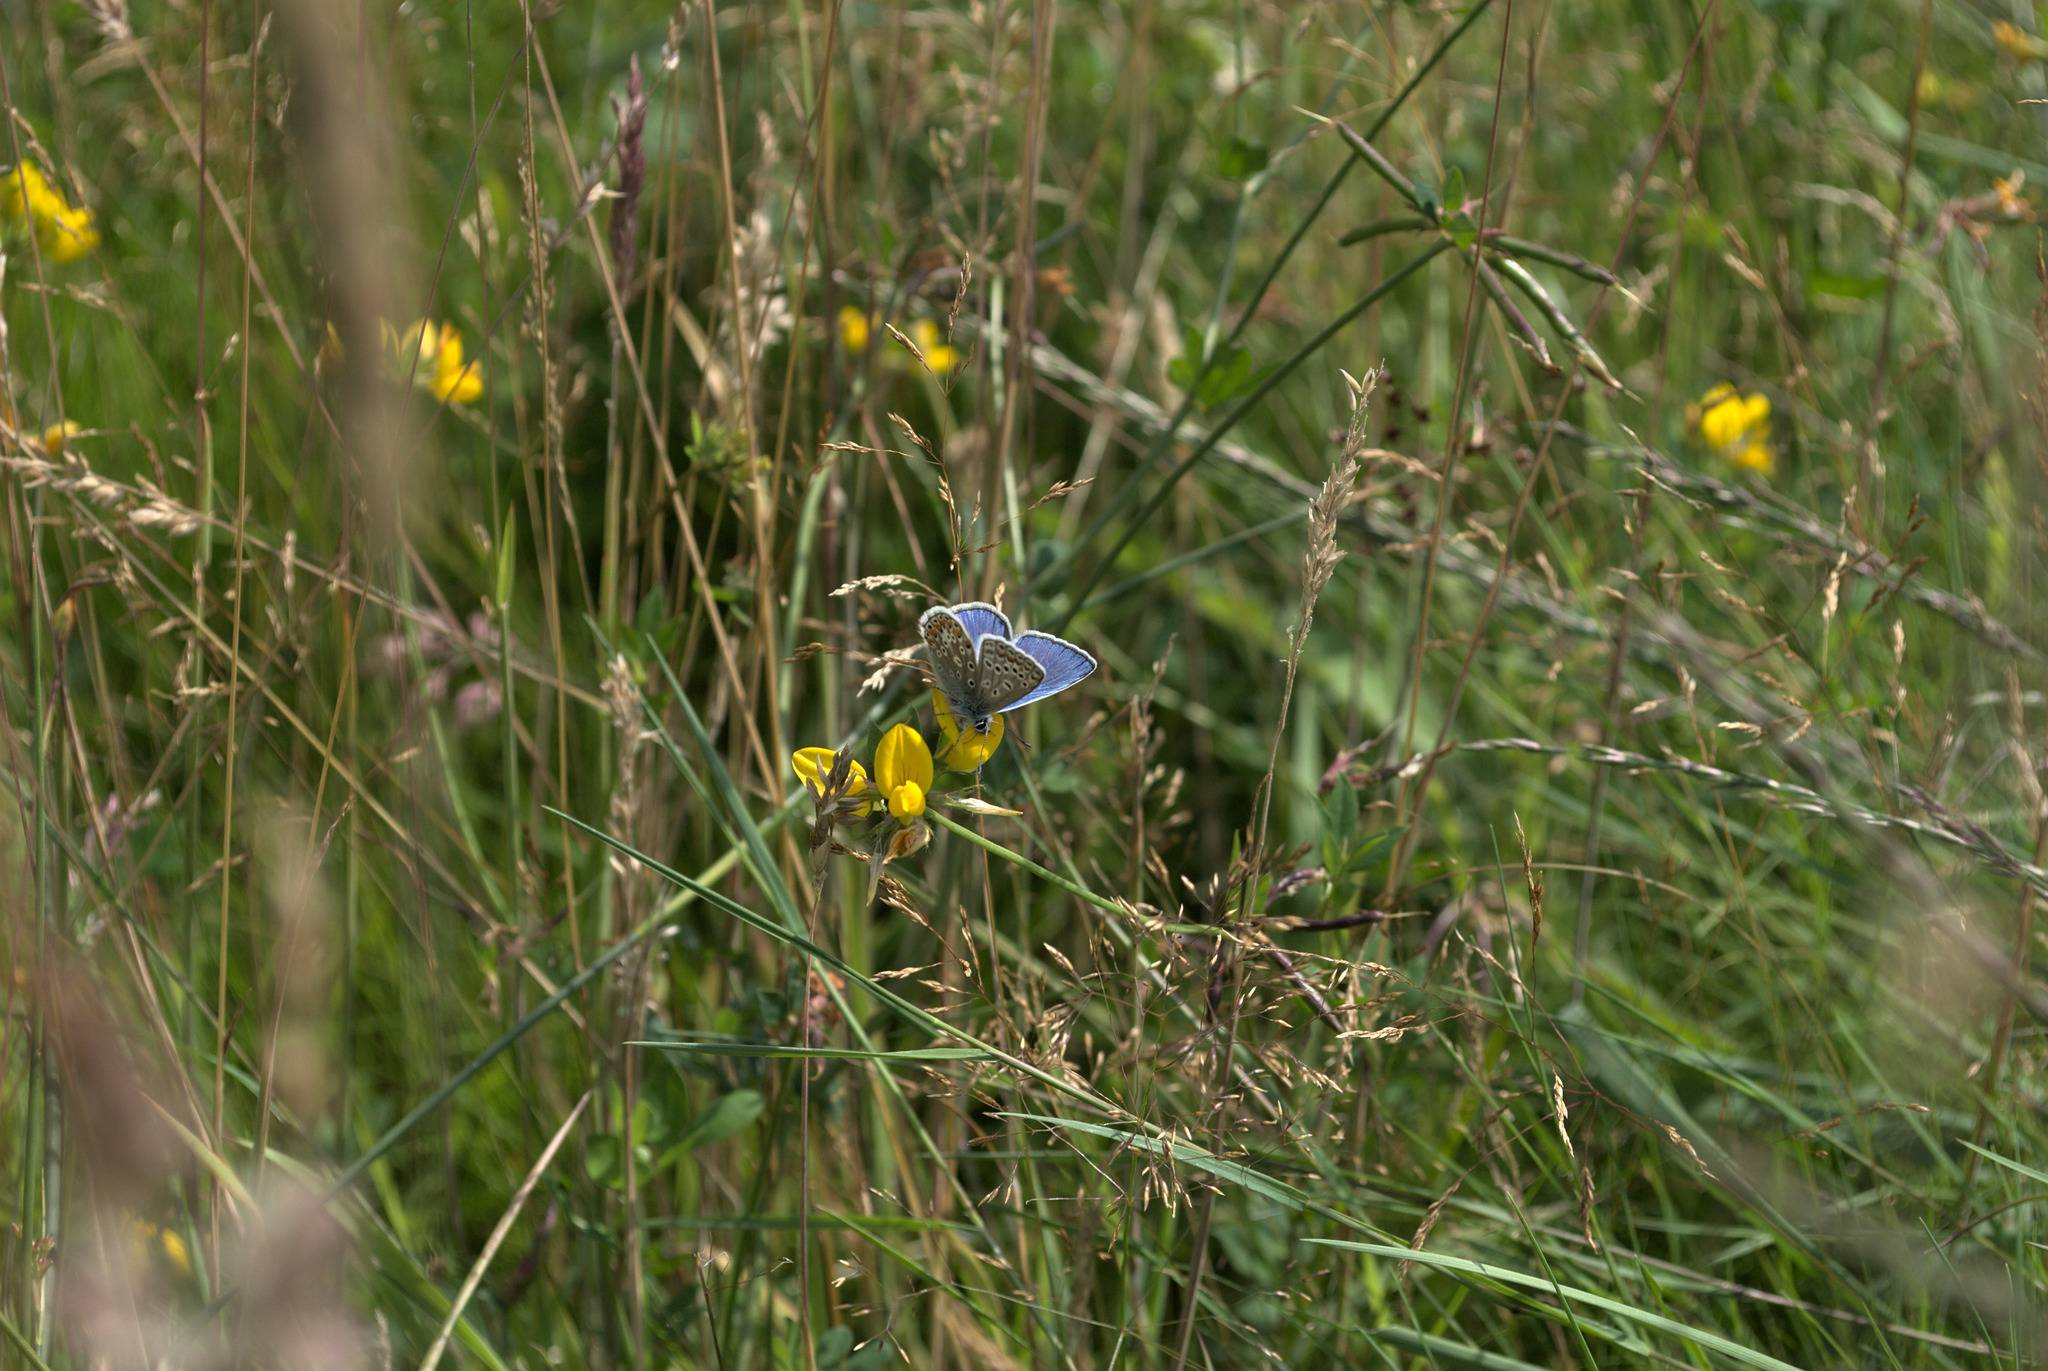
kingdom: Animalia
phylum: Arthropoda
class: Insecta
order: Lepidoptera
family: Lycaenidae
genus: Polyommatus
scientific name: Polyommatus icarus
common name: Common blue
